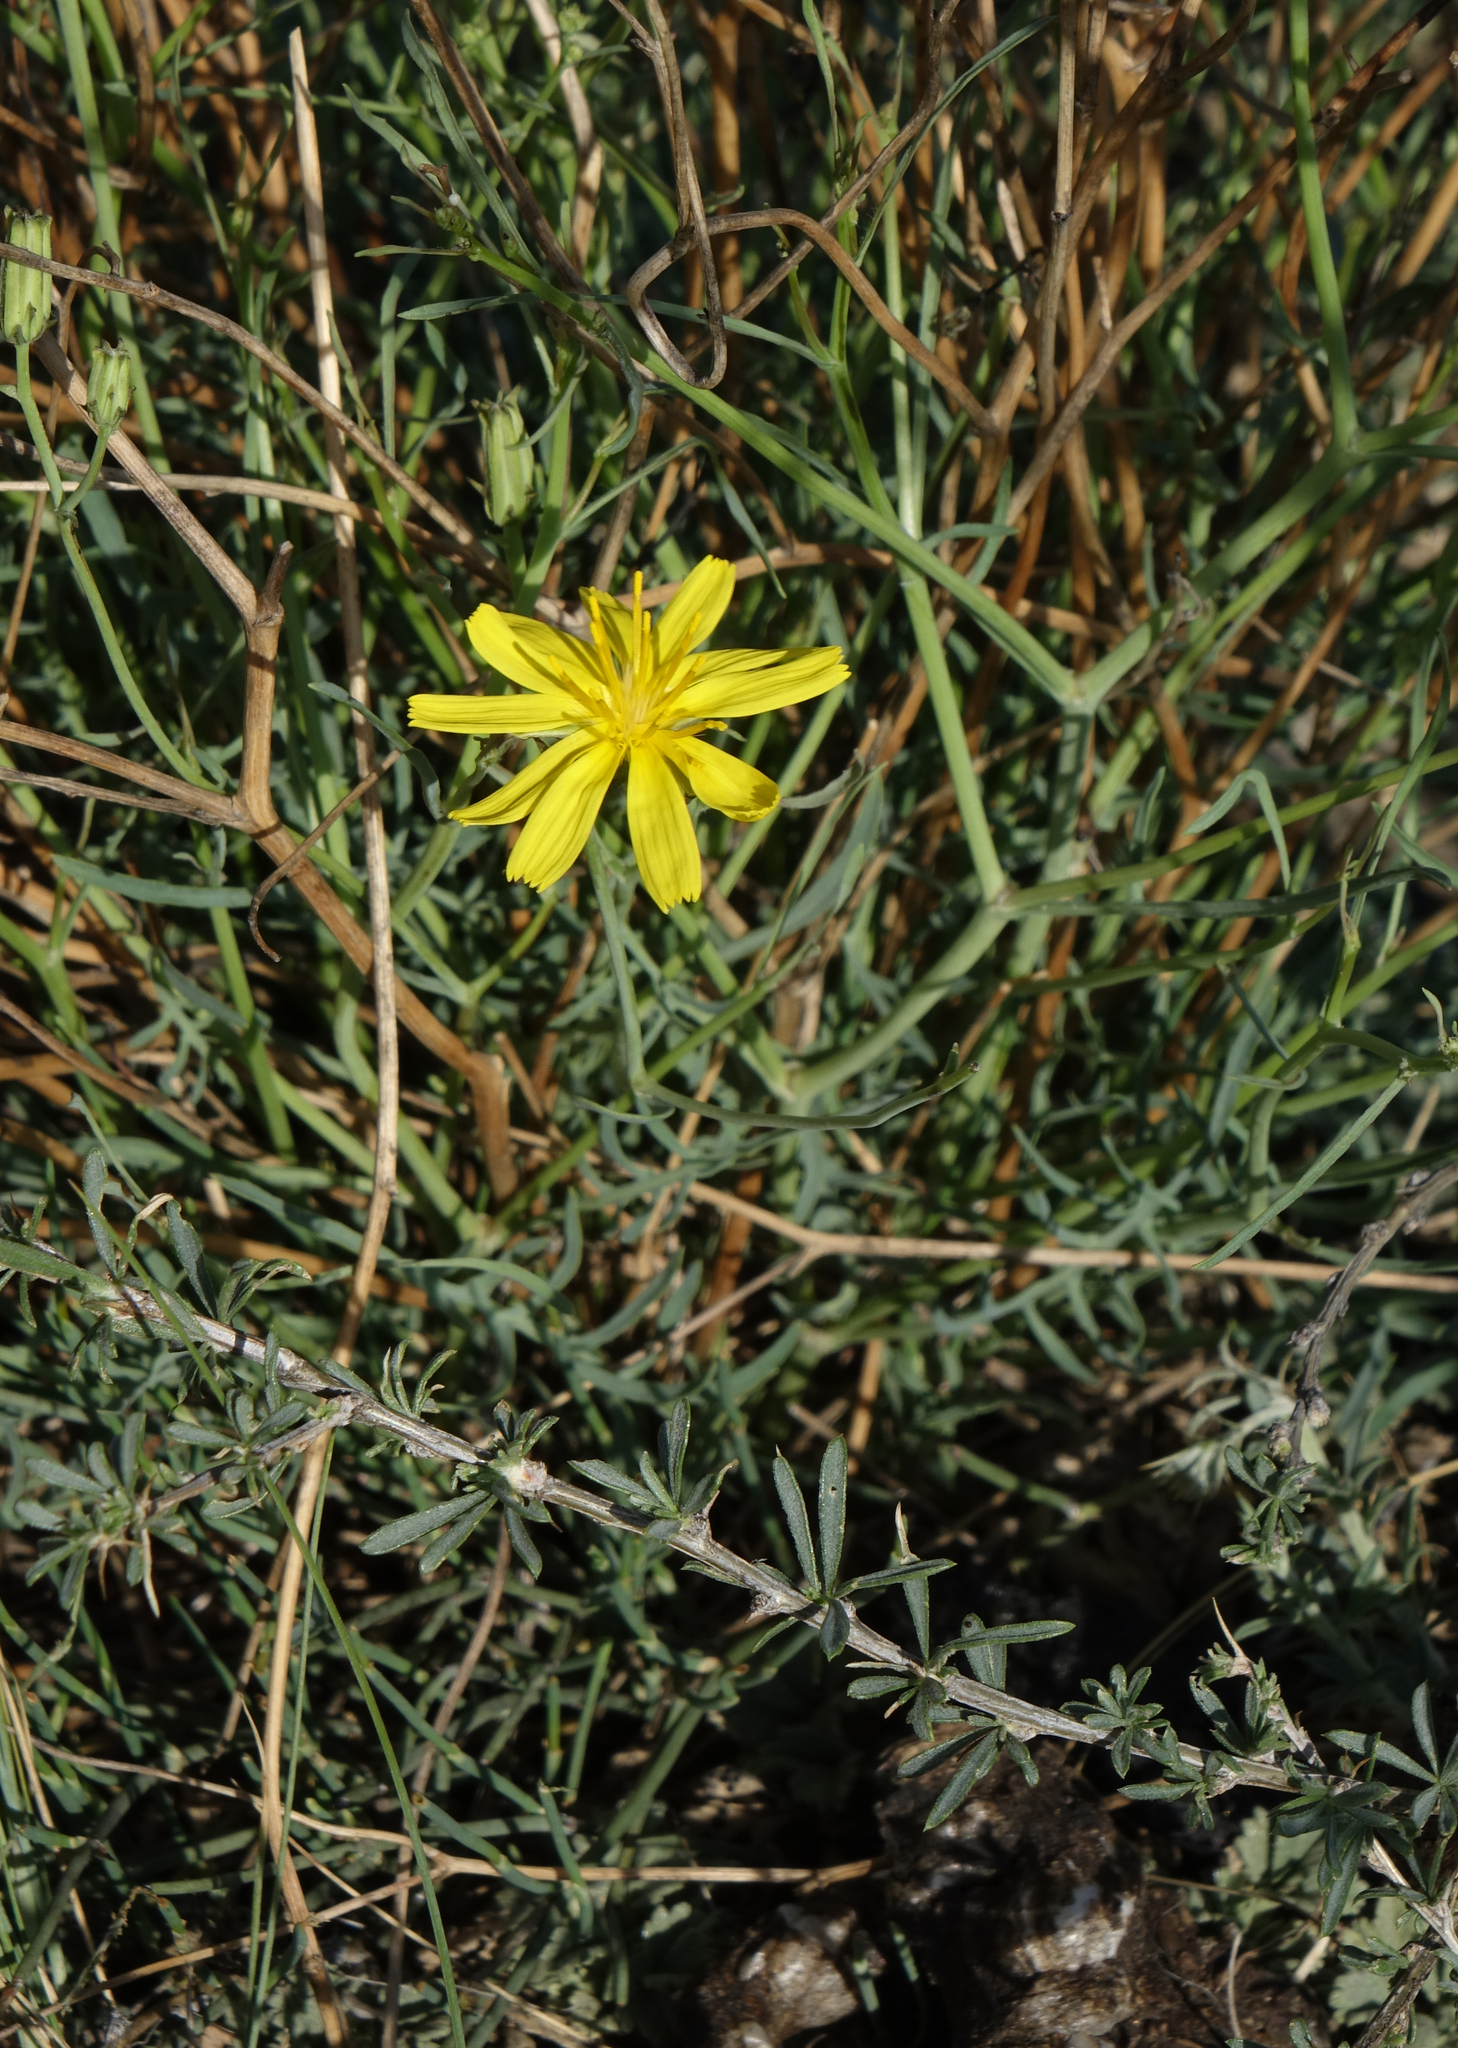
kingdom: Plantae
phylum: Tracheophyta
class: Magnoliopsida
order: Asterales
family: Asteraceae
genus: Crepidiastrum
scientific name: Crepidiastrum tenuifolium
